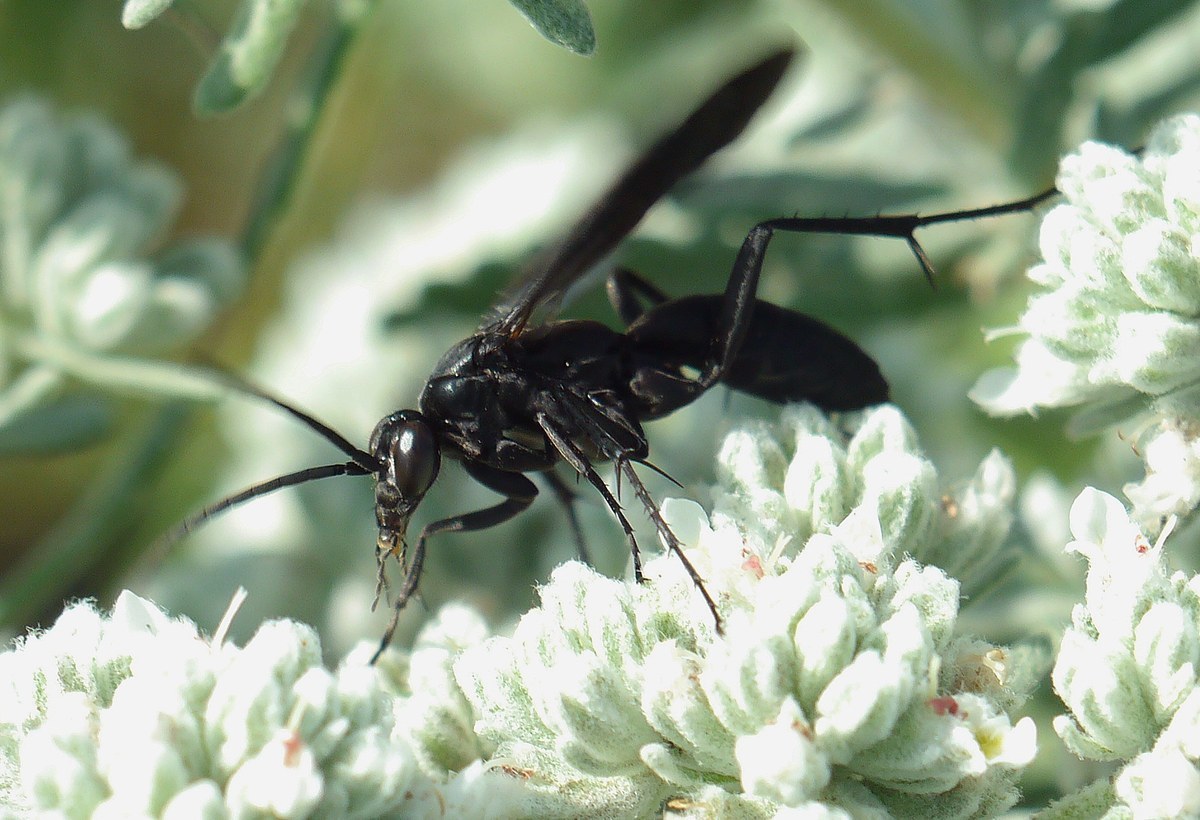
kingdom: Animalia
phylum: Arthropoda
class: Insecta
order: Hymenoptera
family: Pompilidae
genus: Agenioideus
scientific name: Agenioideus excisus
